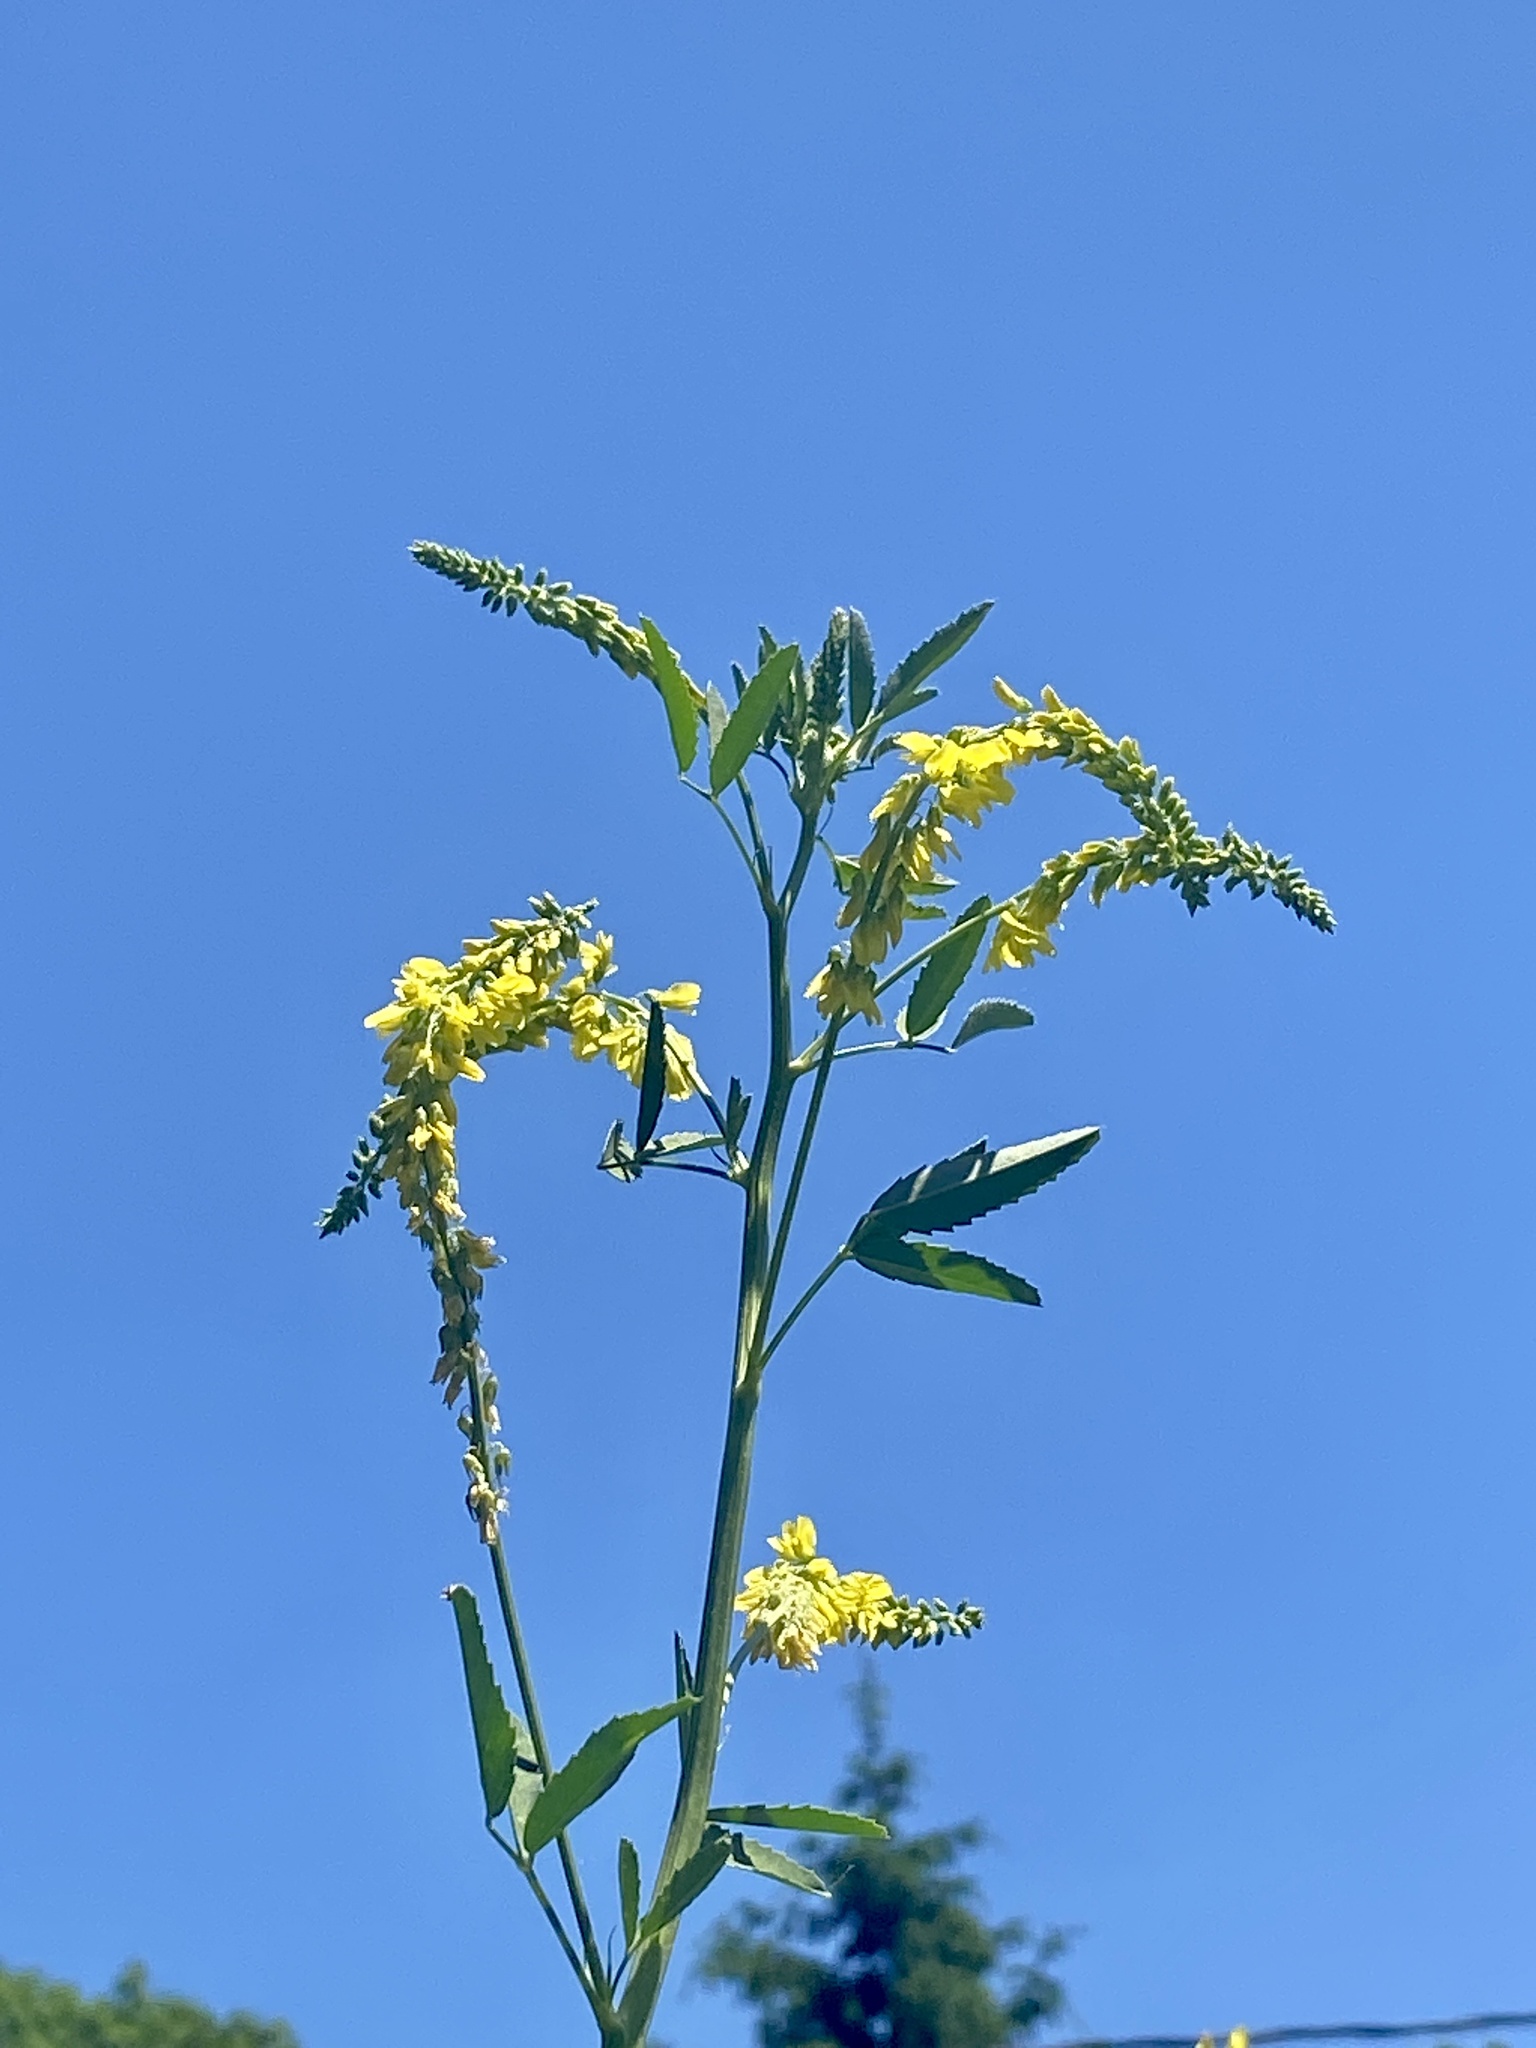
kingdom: Plantae
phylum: Tracheophyta
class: Magnoliopsida
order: Fabales
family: Fabaceae
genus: Melilotus
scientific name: Melilotus officinalis
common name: Sweetclover
